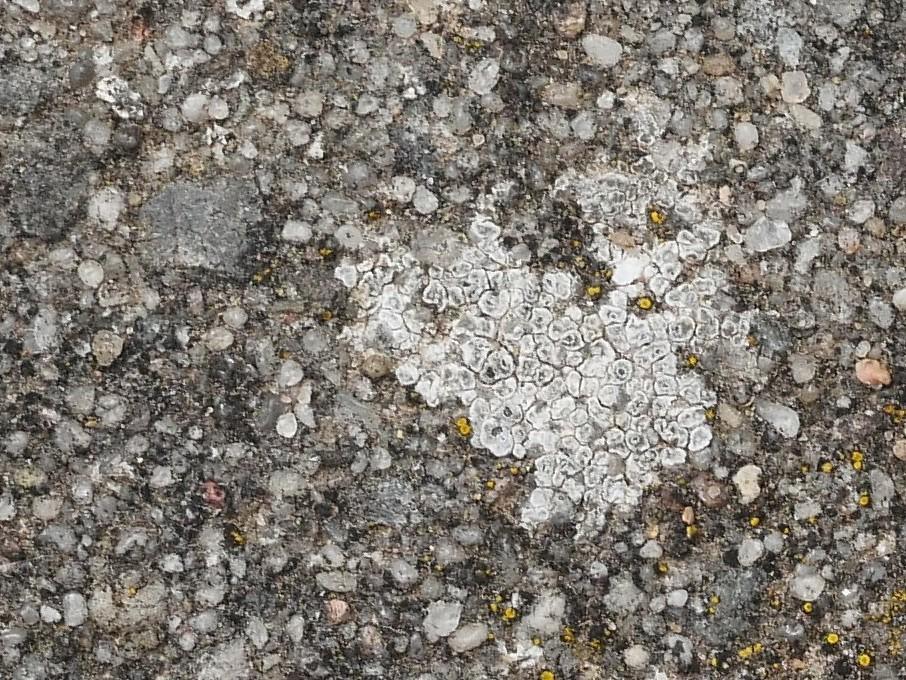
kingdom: Fungi
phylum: Ascomycota
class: Lecanoromycetes
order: Pertusariales
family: Megasporaceae
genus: Circinaria
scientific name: Circinaria contorta
